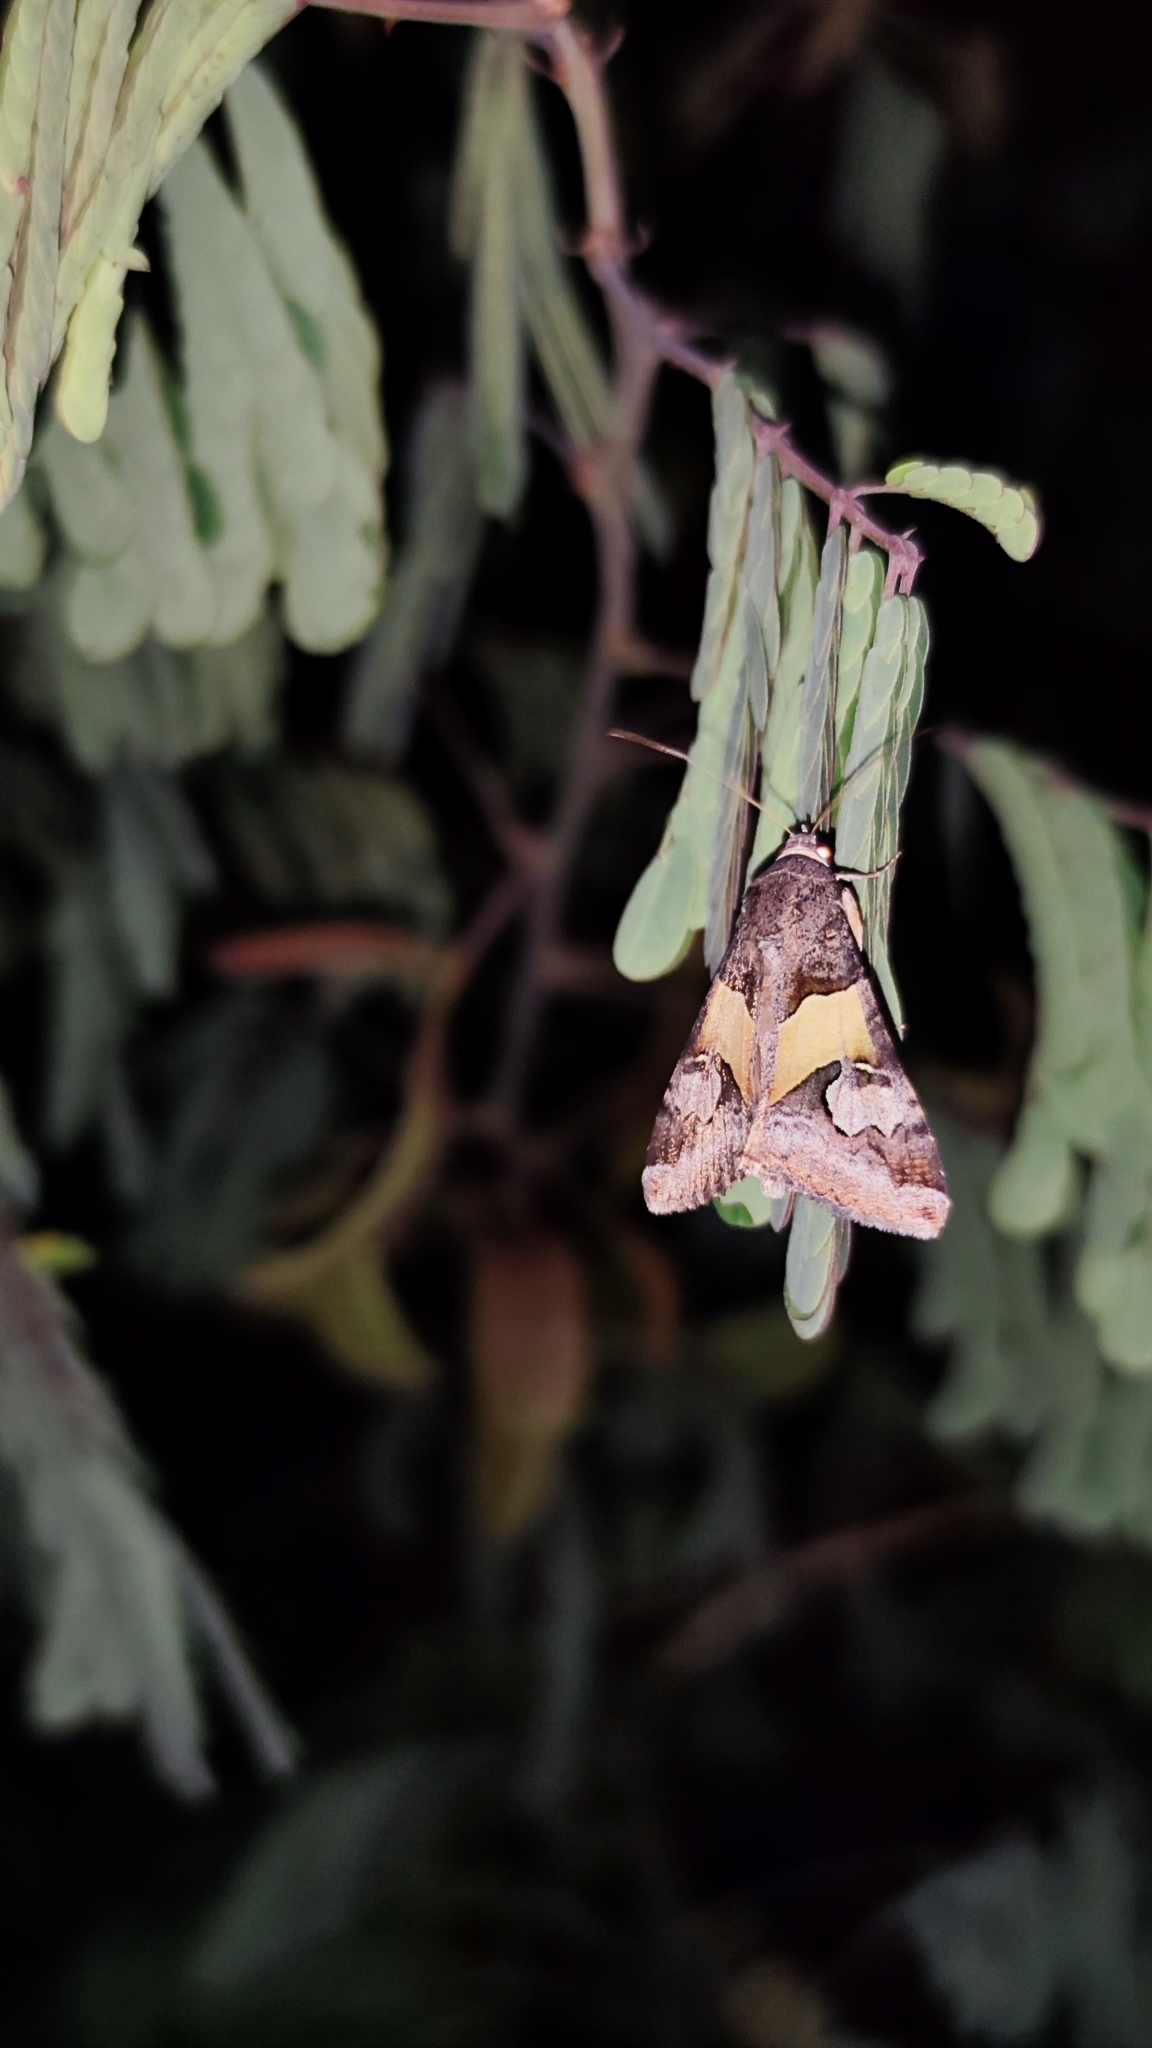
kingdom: Animalia
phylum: Arthropoda
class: Insecta
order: Lepidoptera
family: Erebidae
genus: Melipotis
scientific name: Melipotis ochrodes
